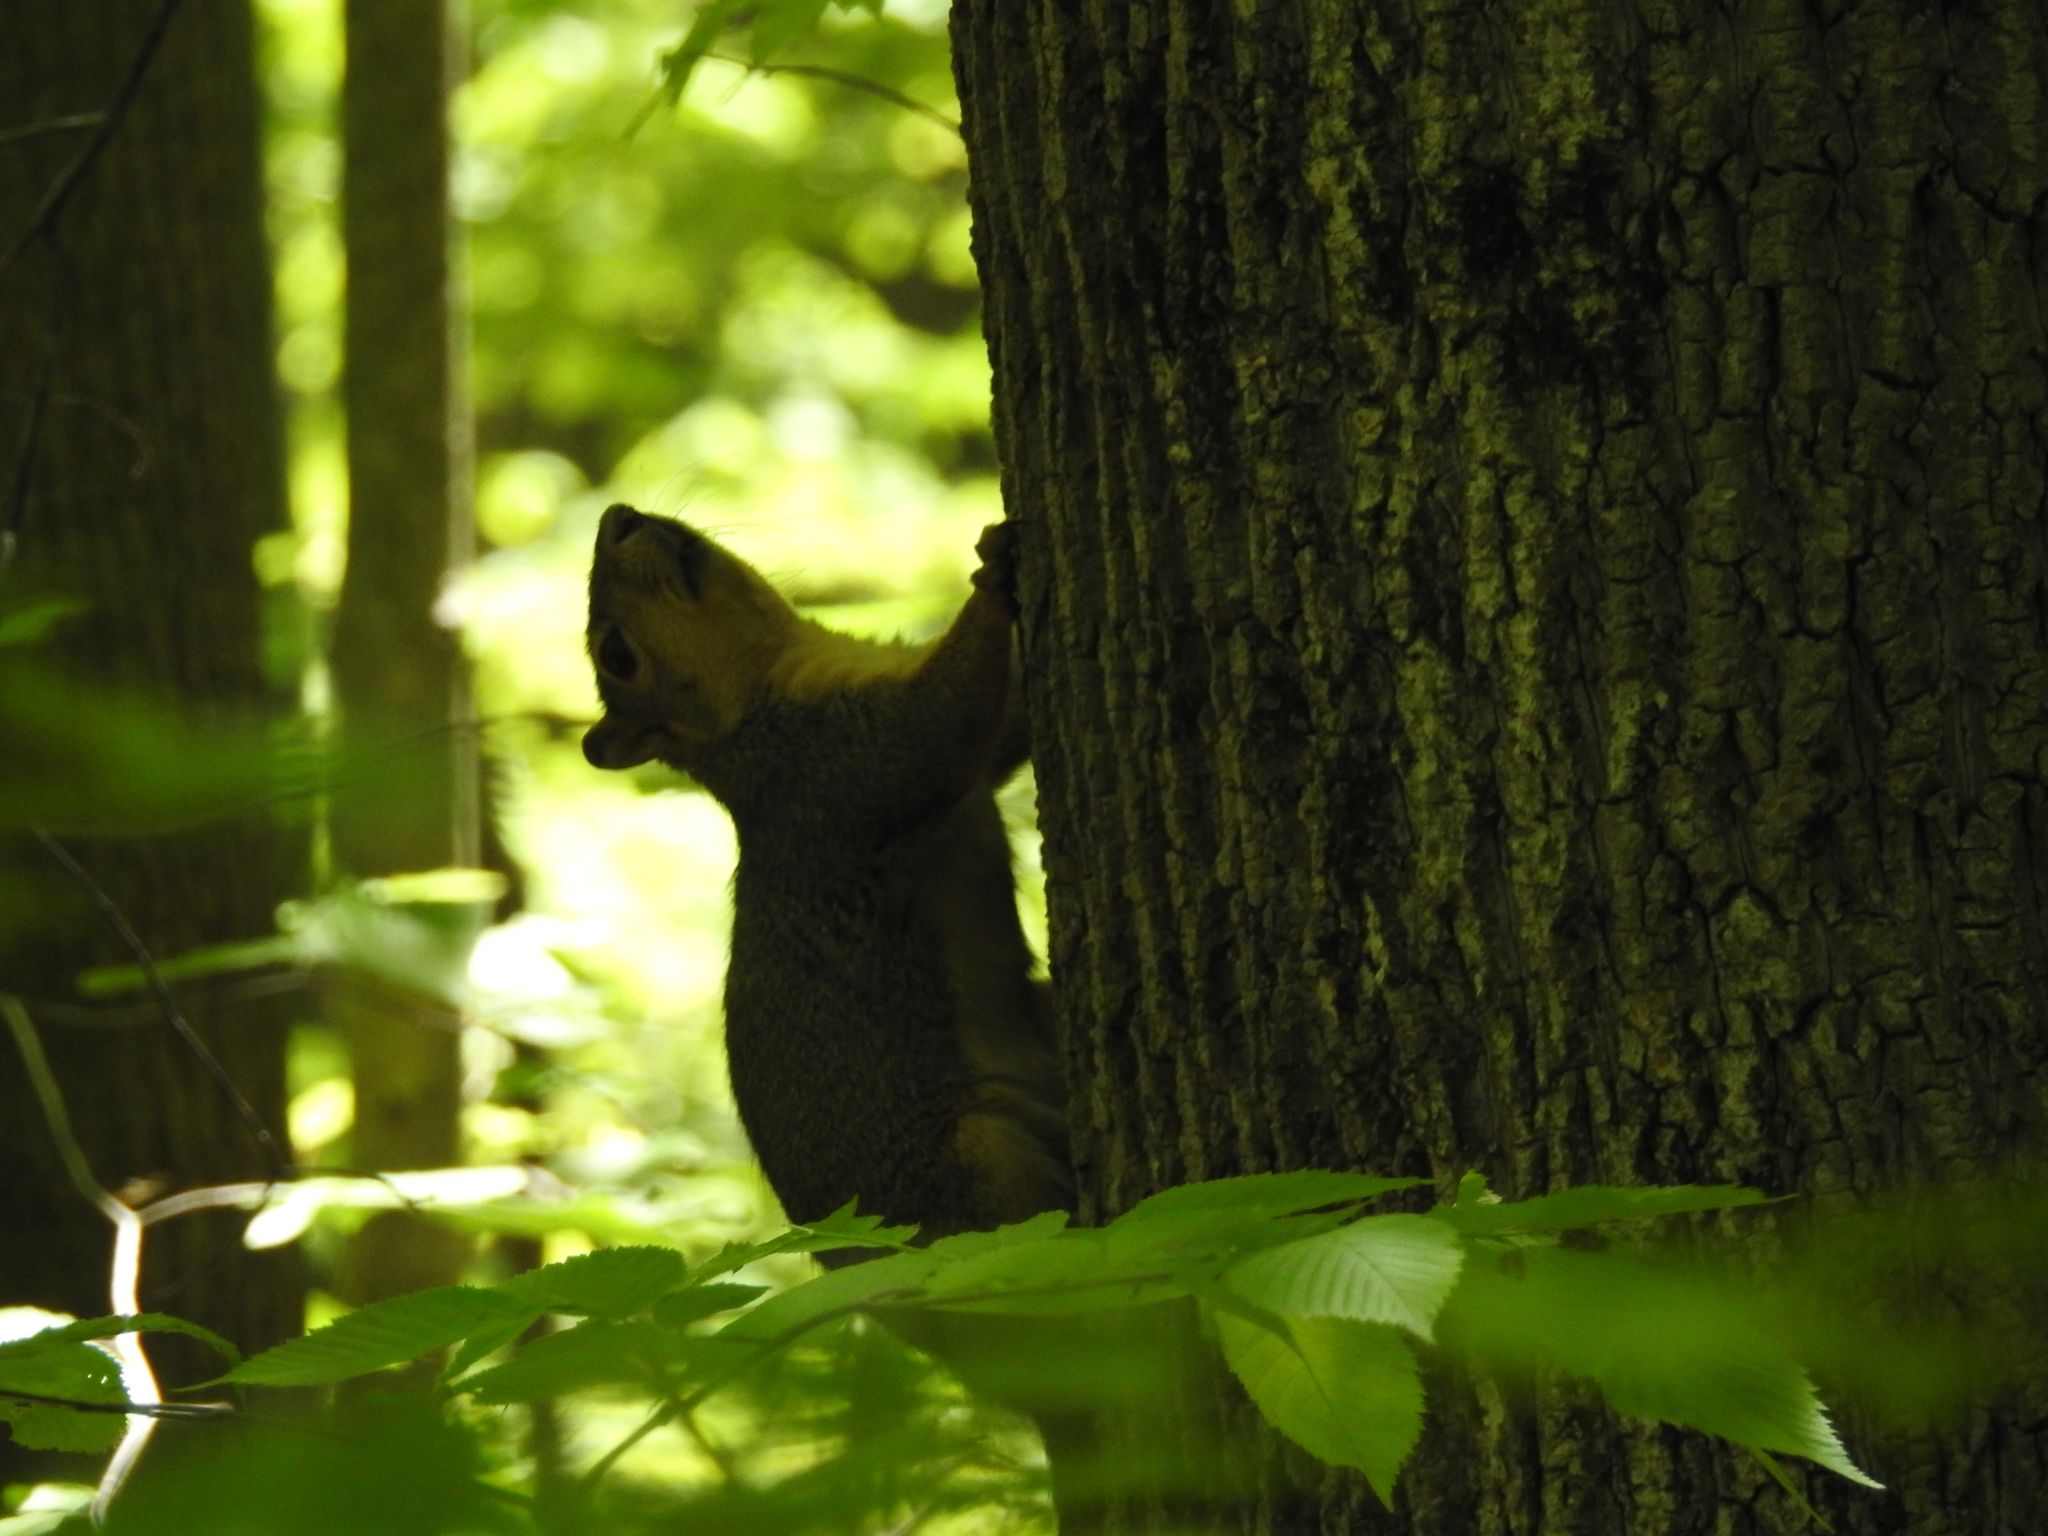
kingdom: Animalia
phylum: Chordata
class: Mammalia
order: Rodentia
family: Sciuridae
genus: Sciurus
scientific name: Sciurus niger
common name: Fox squirrel
